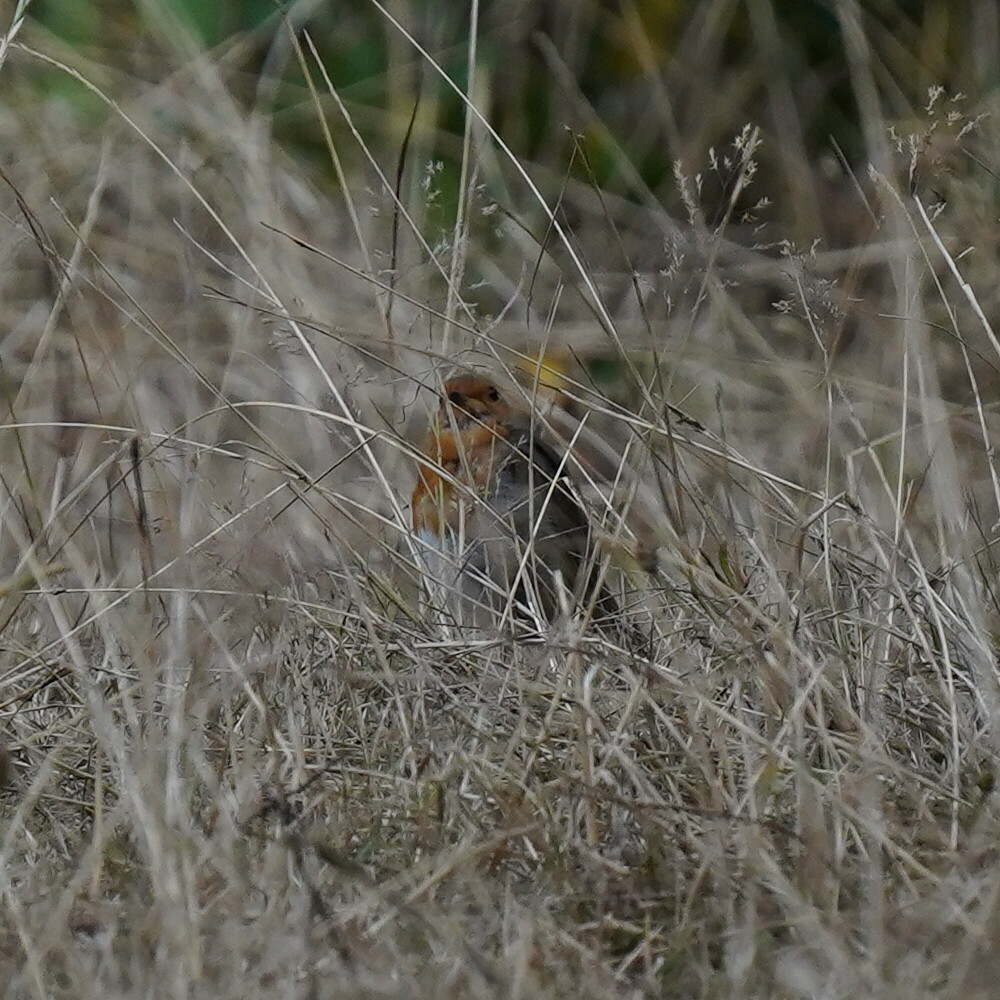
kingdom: Animalia
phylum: Chordata
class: Aves
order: Passeriformes
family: Muscicapidae
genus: Erithacus
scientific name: Erithacus rubecula
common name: European robin
